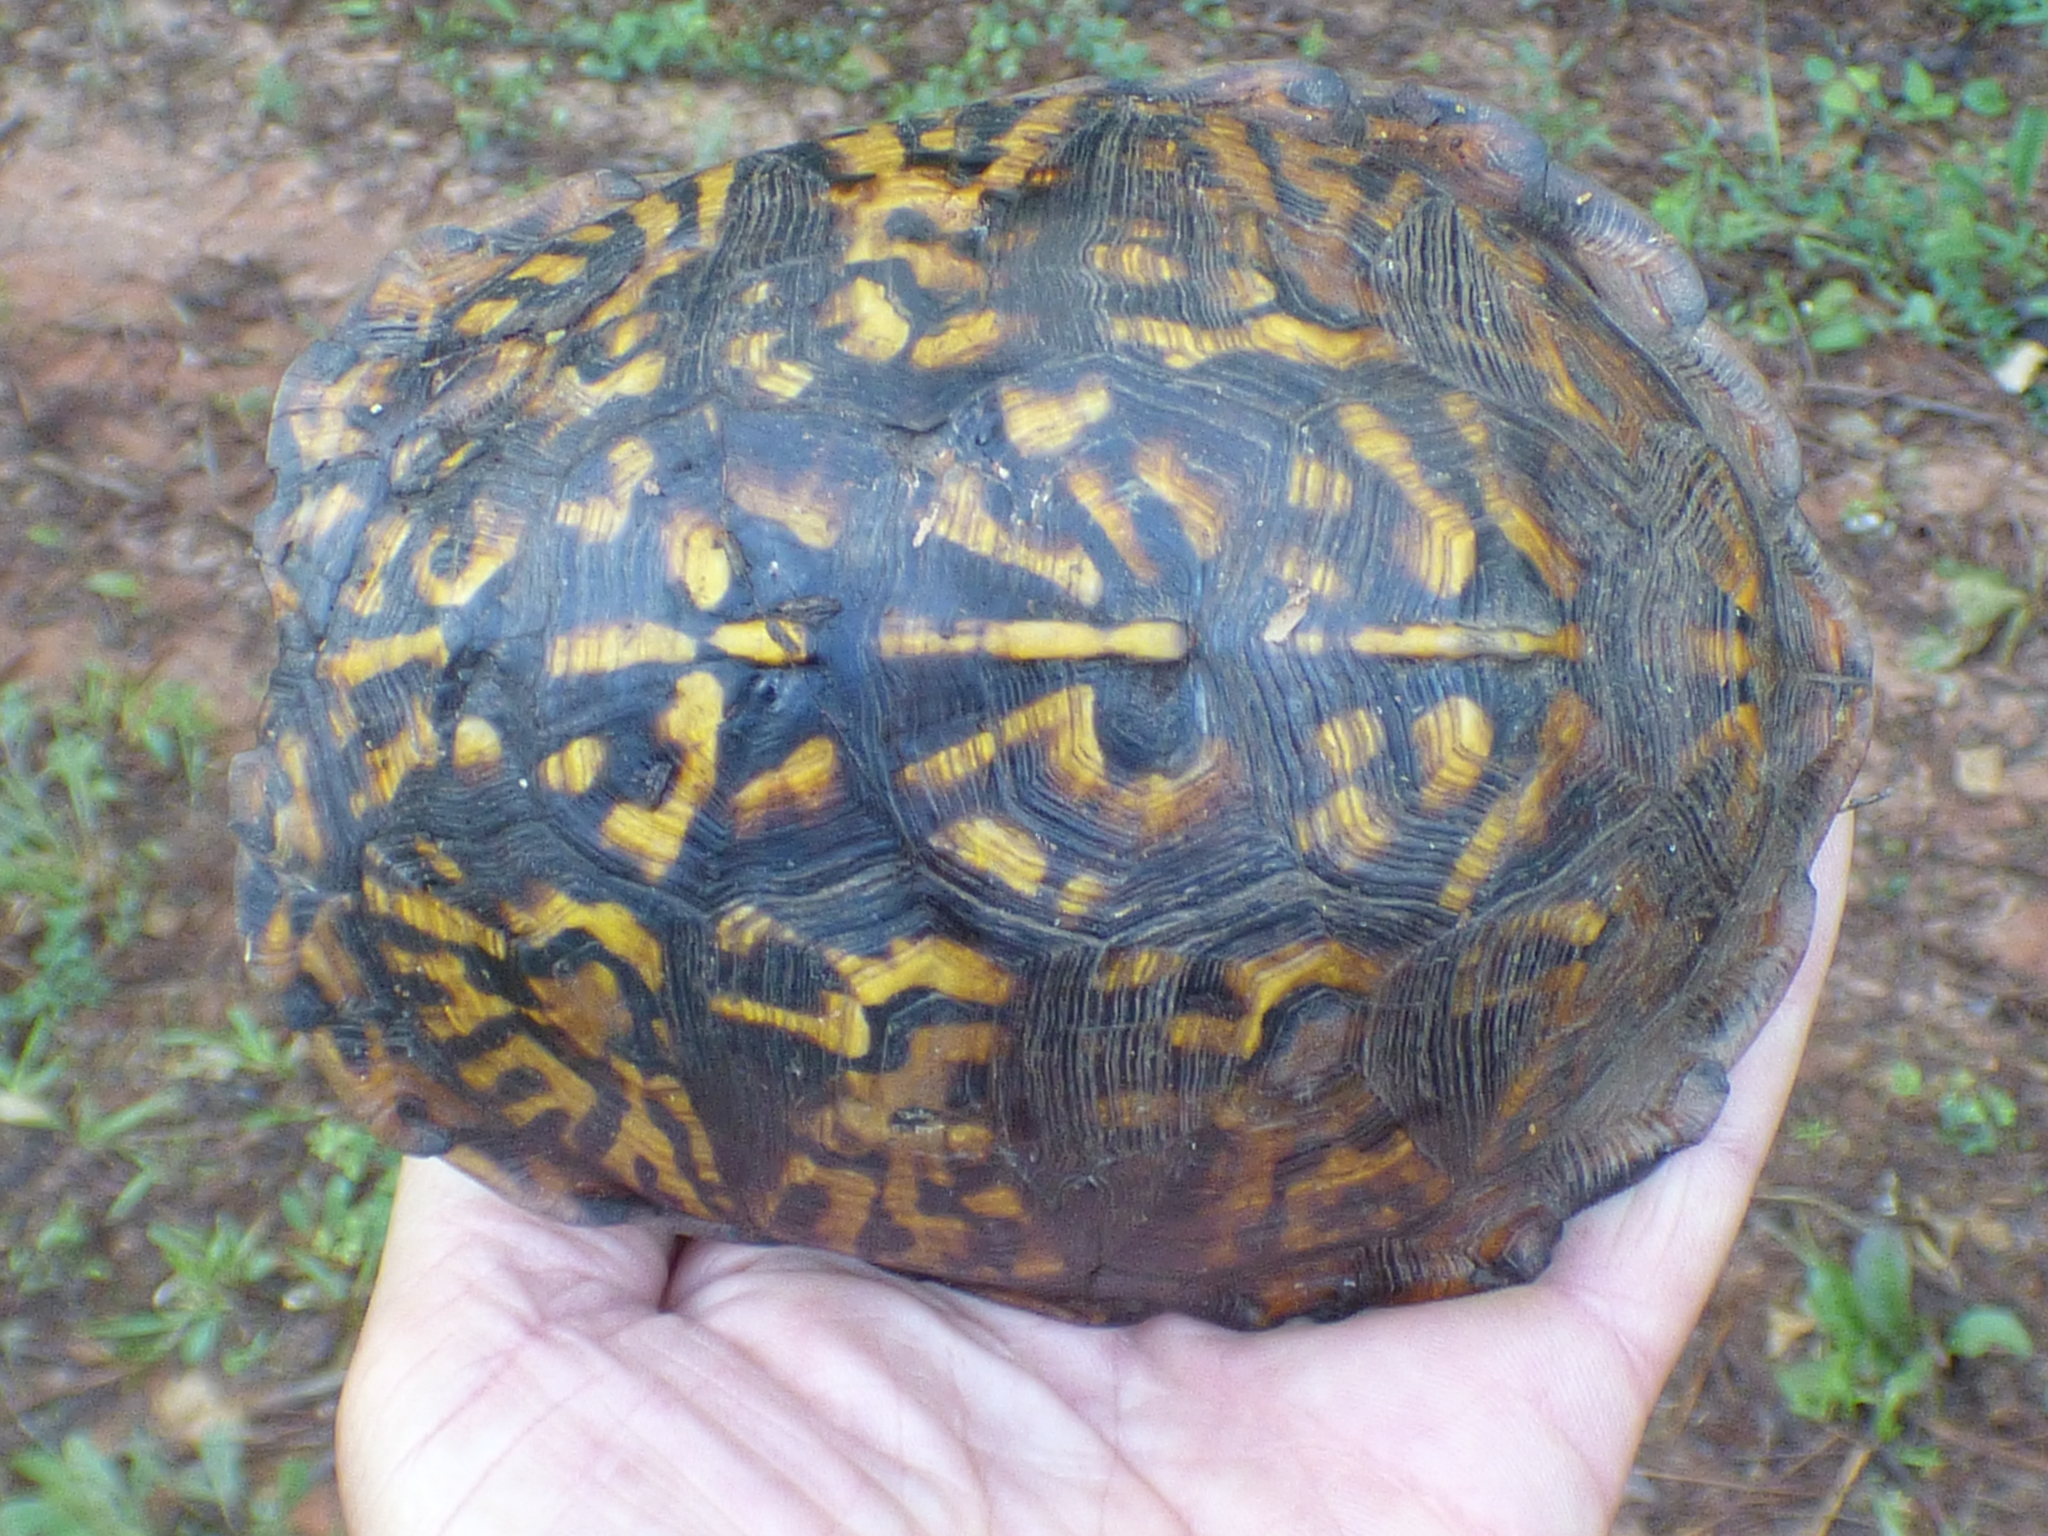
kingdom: Animalia
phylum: Chordata
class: Testudines
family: Emydidae
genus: Terrapene
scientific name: Terrapene carolina
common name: Common box turtle
